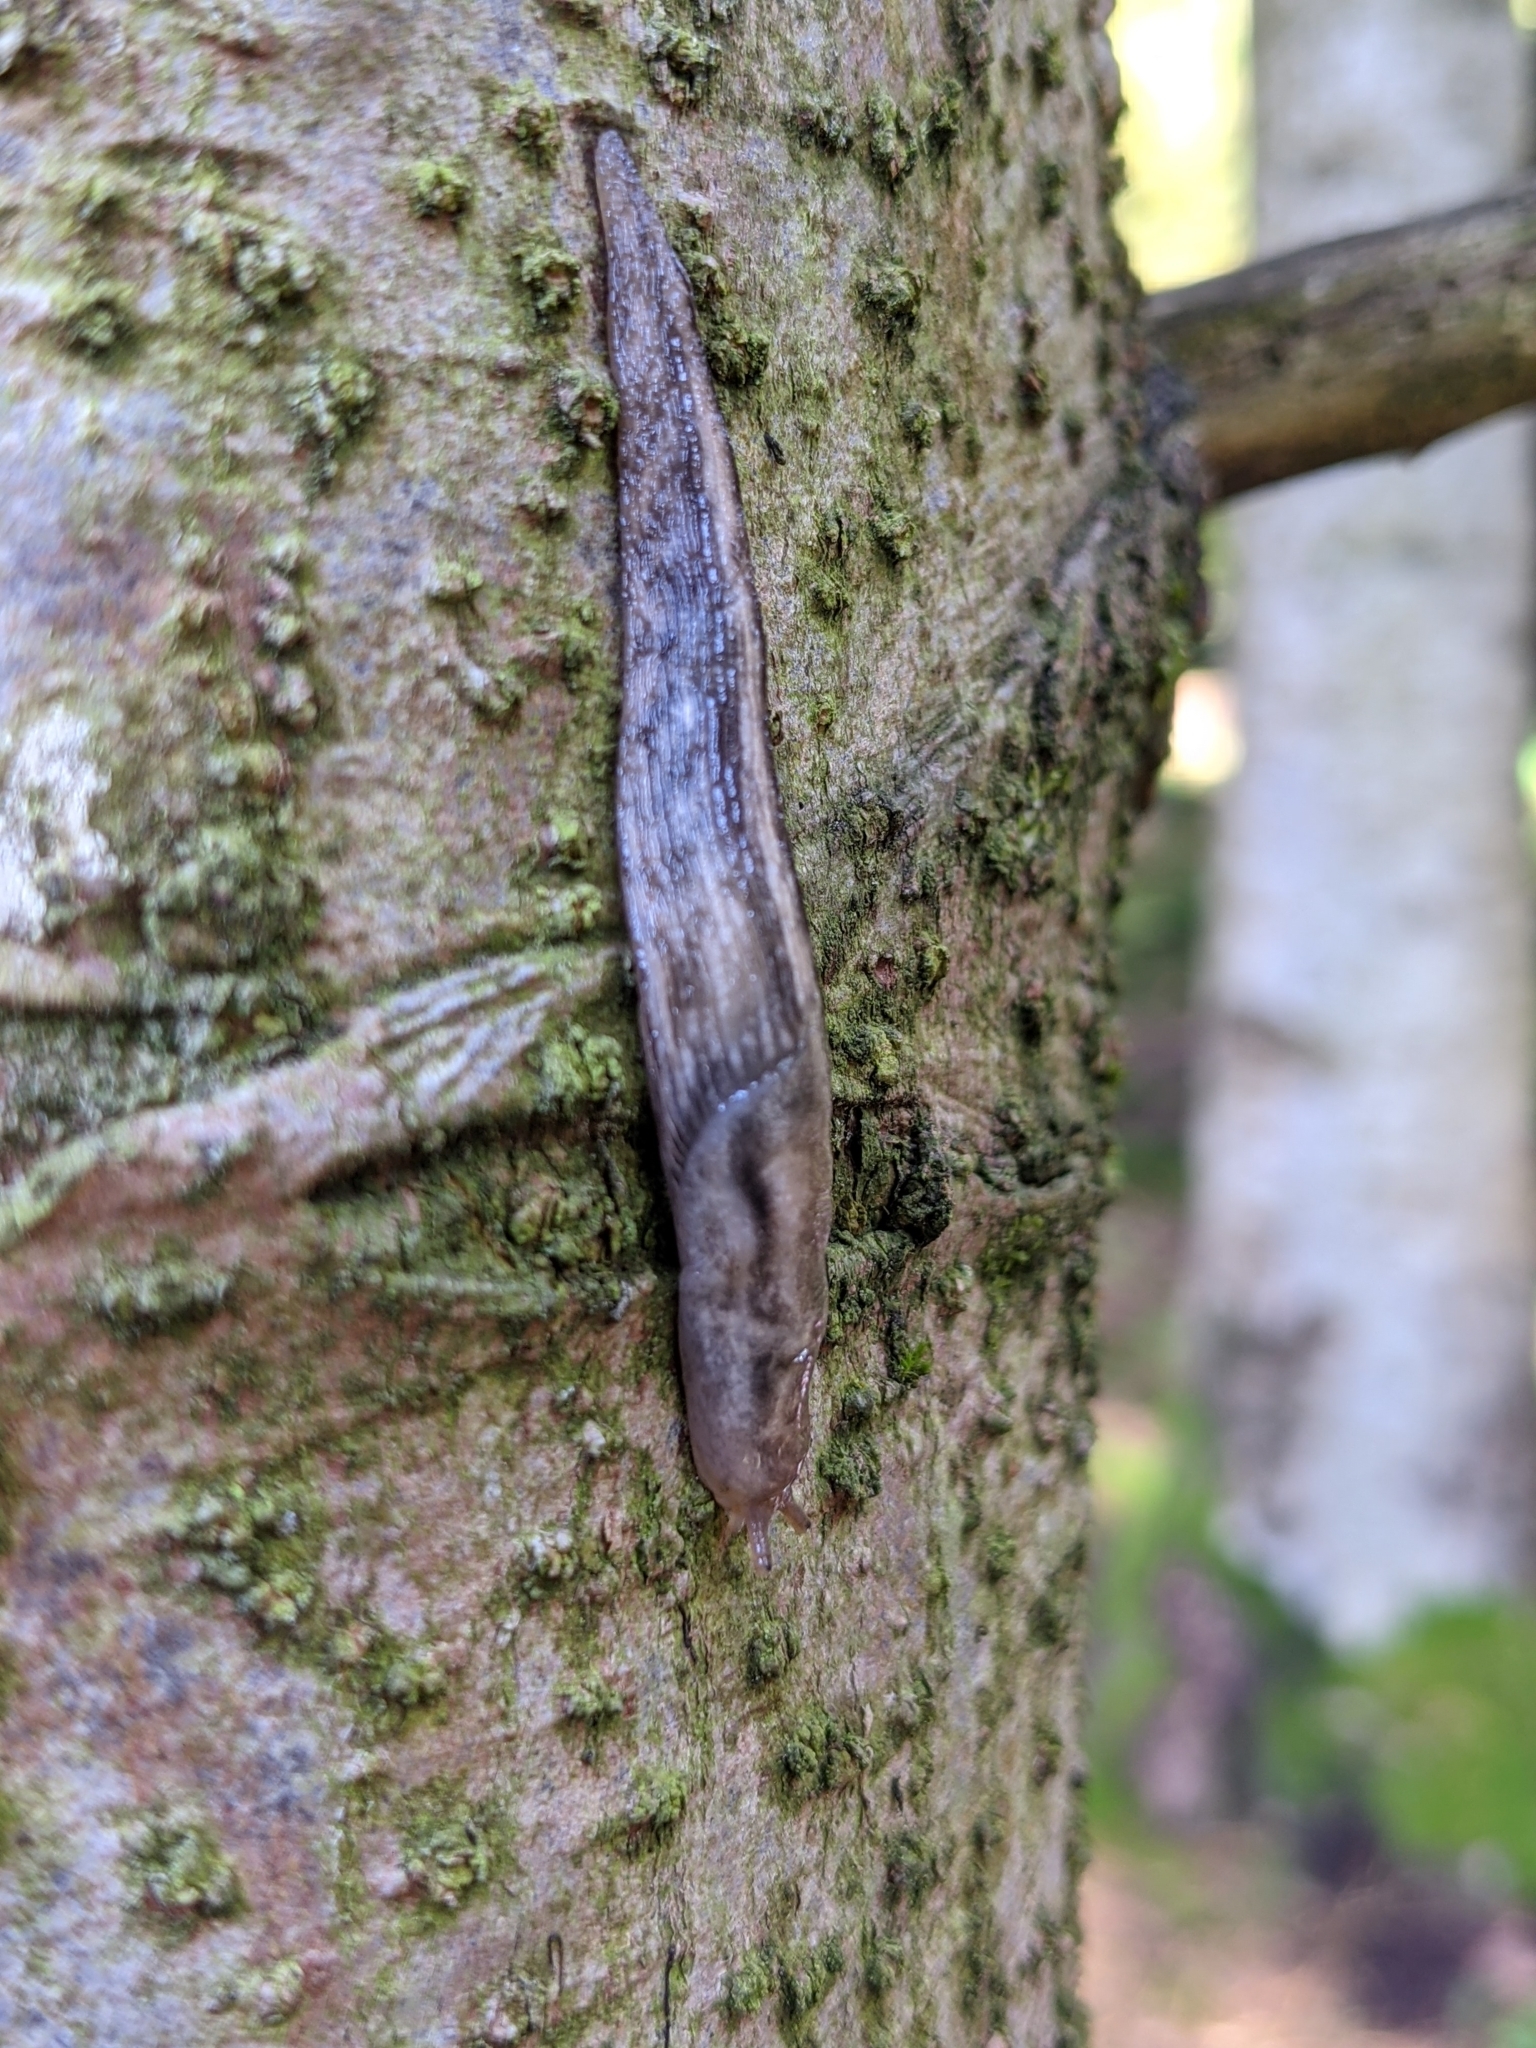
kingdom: Animalia
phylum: Mollusca
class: Gastropoda
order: Stylommatophora
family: Limacidae
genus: Lehmannia
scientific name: Lehmannia marginata
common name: Tree slug
